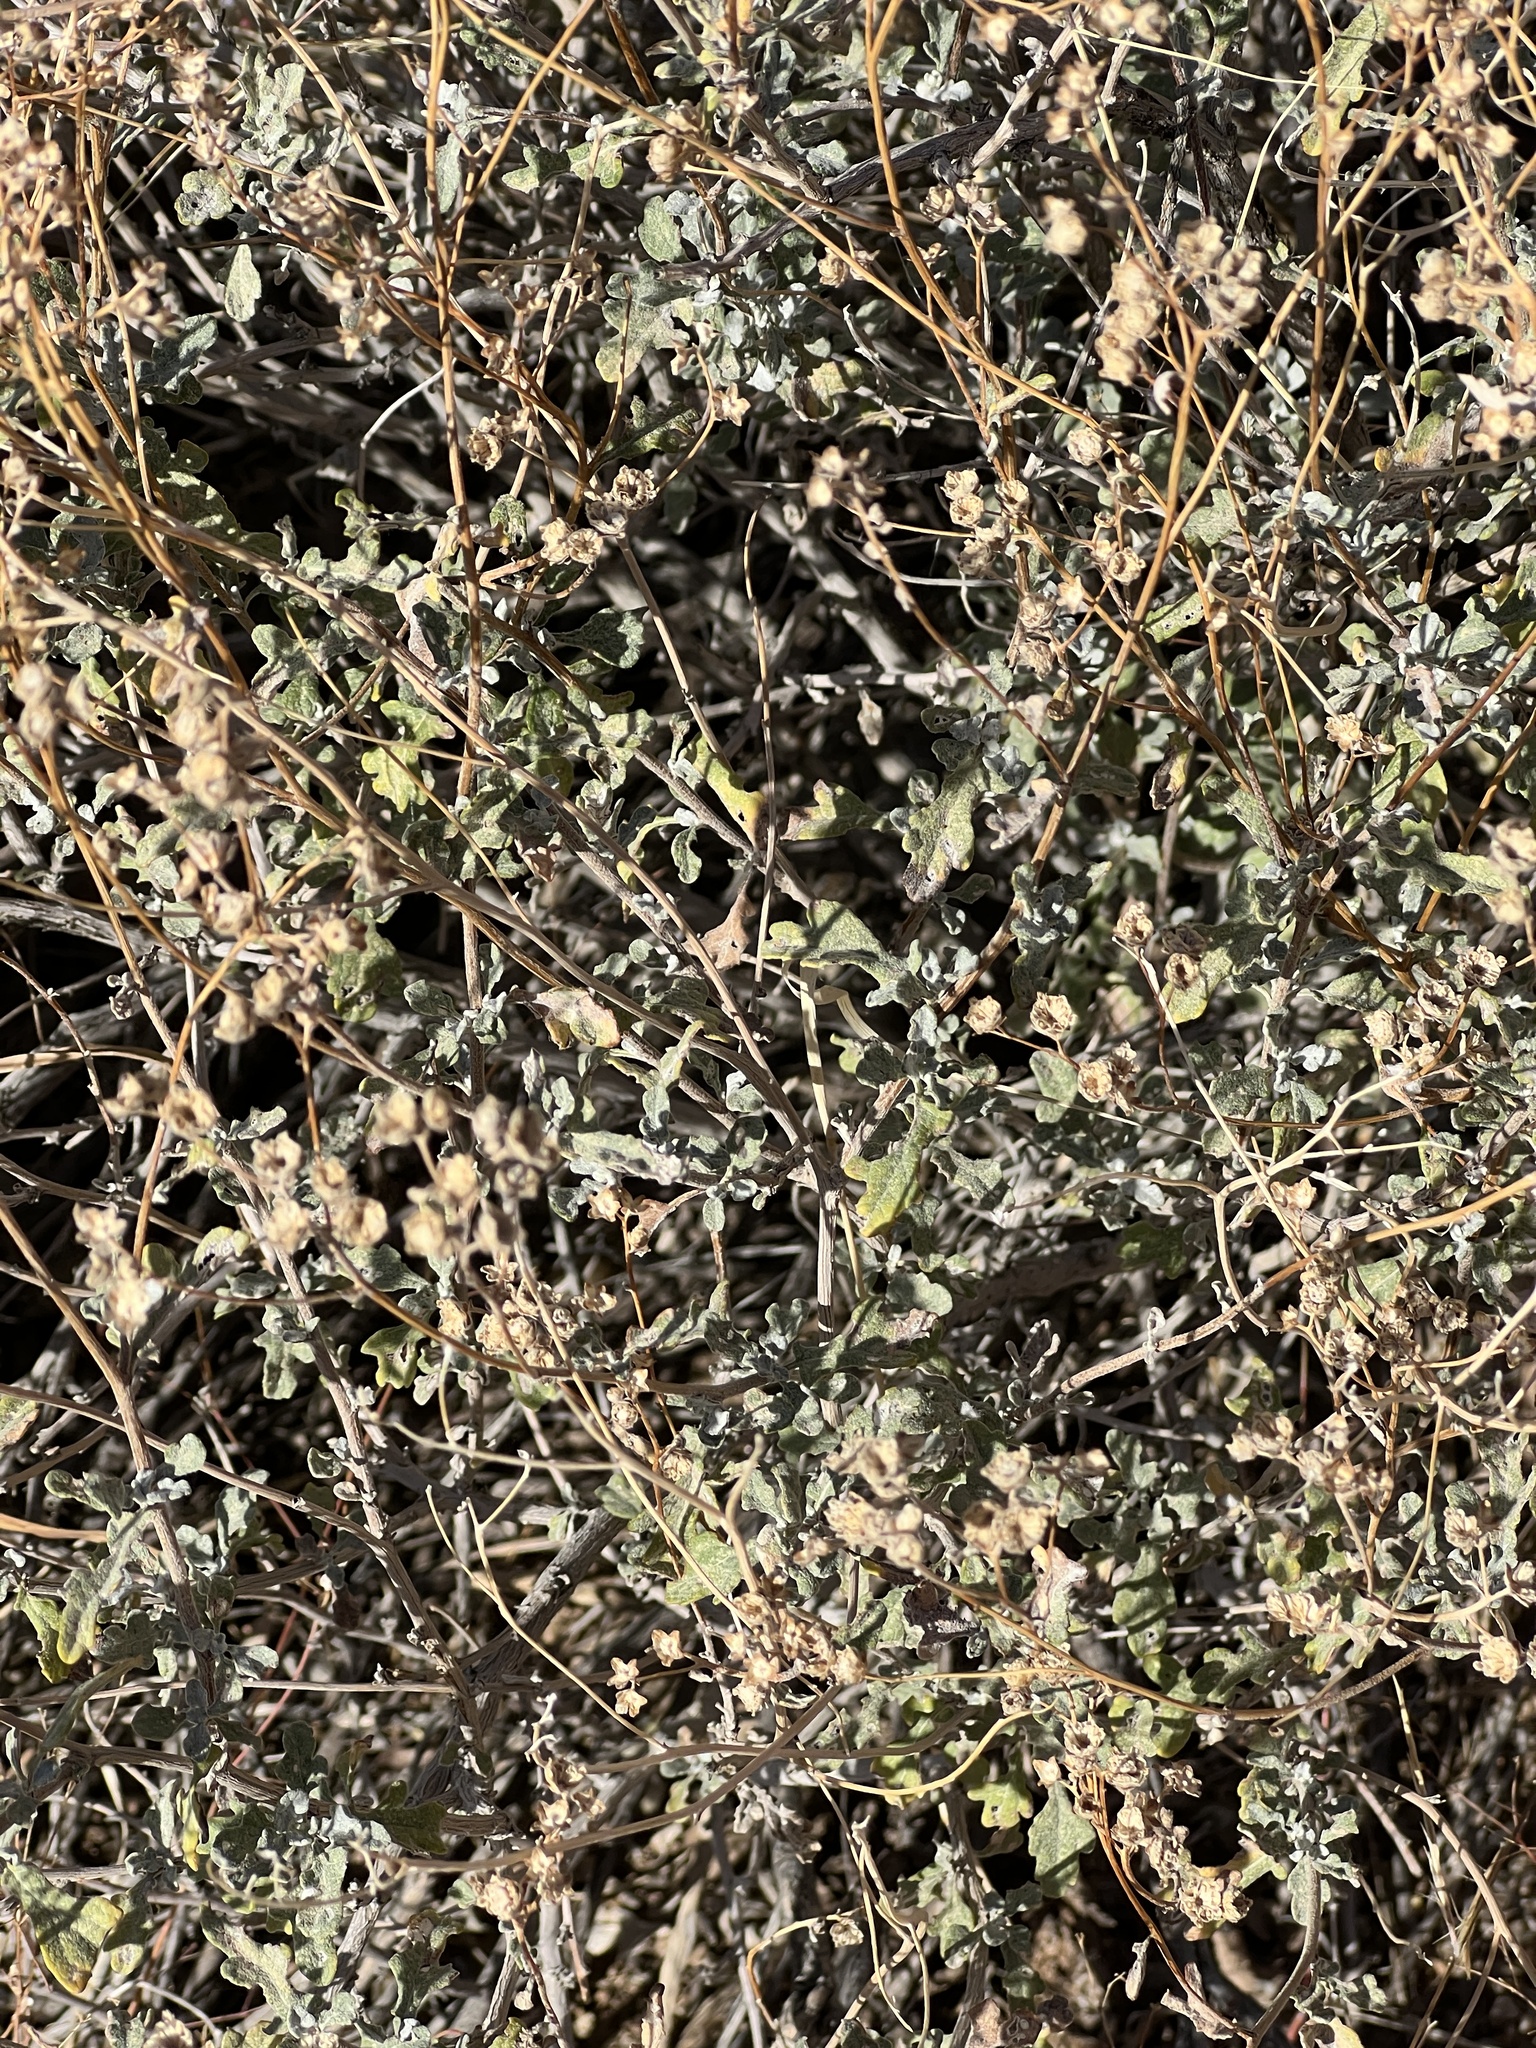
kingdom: Plantae
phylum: Tracheophyta
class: Magnoliopsida
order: Asterales
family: Asteraceae
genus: Parthenium
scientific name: Parthenium incanum
